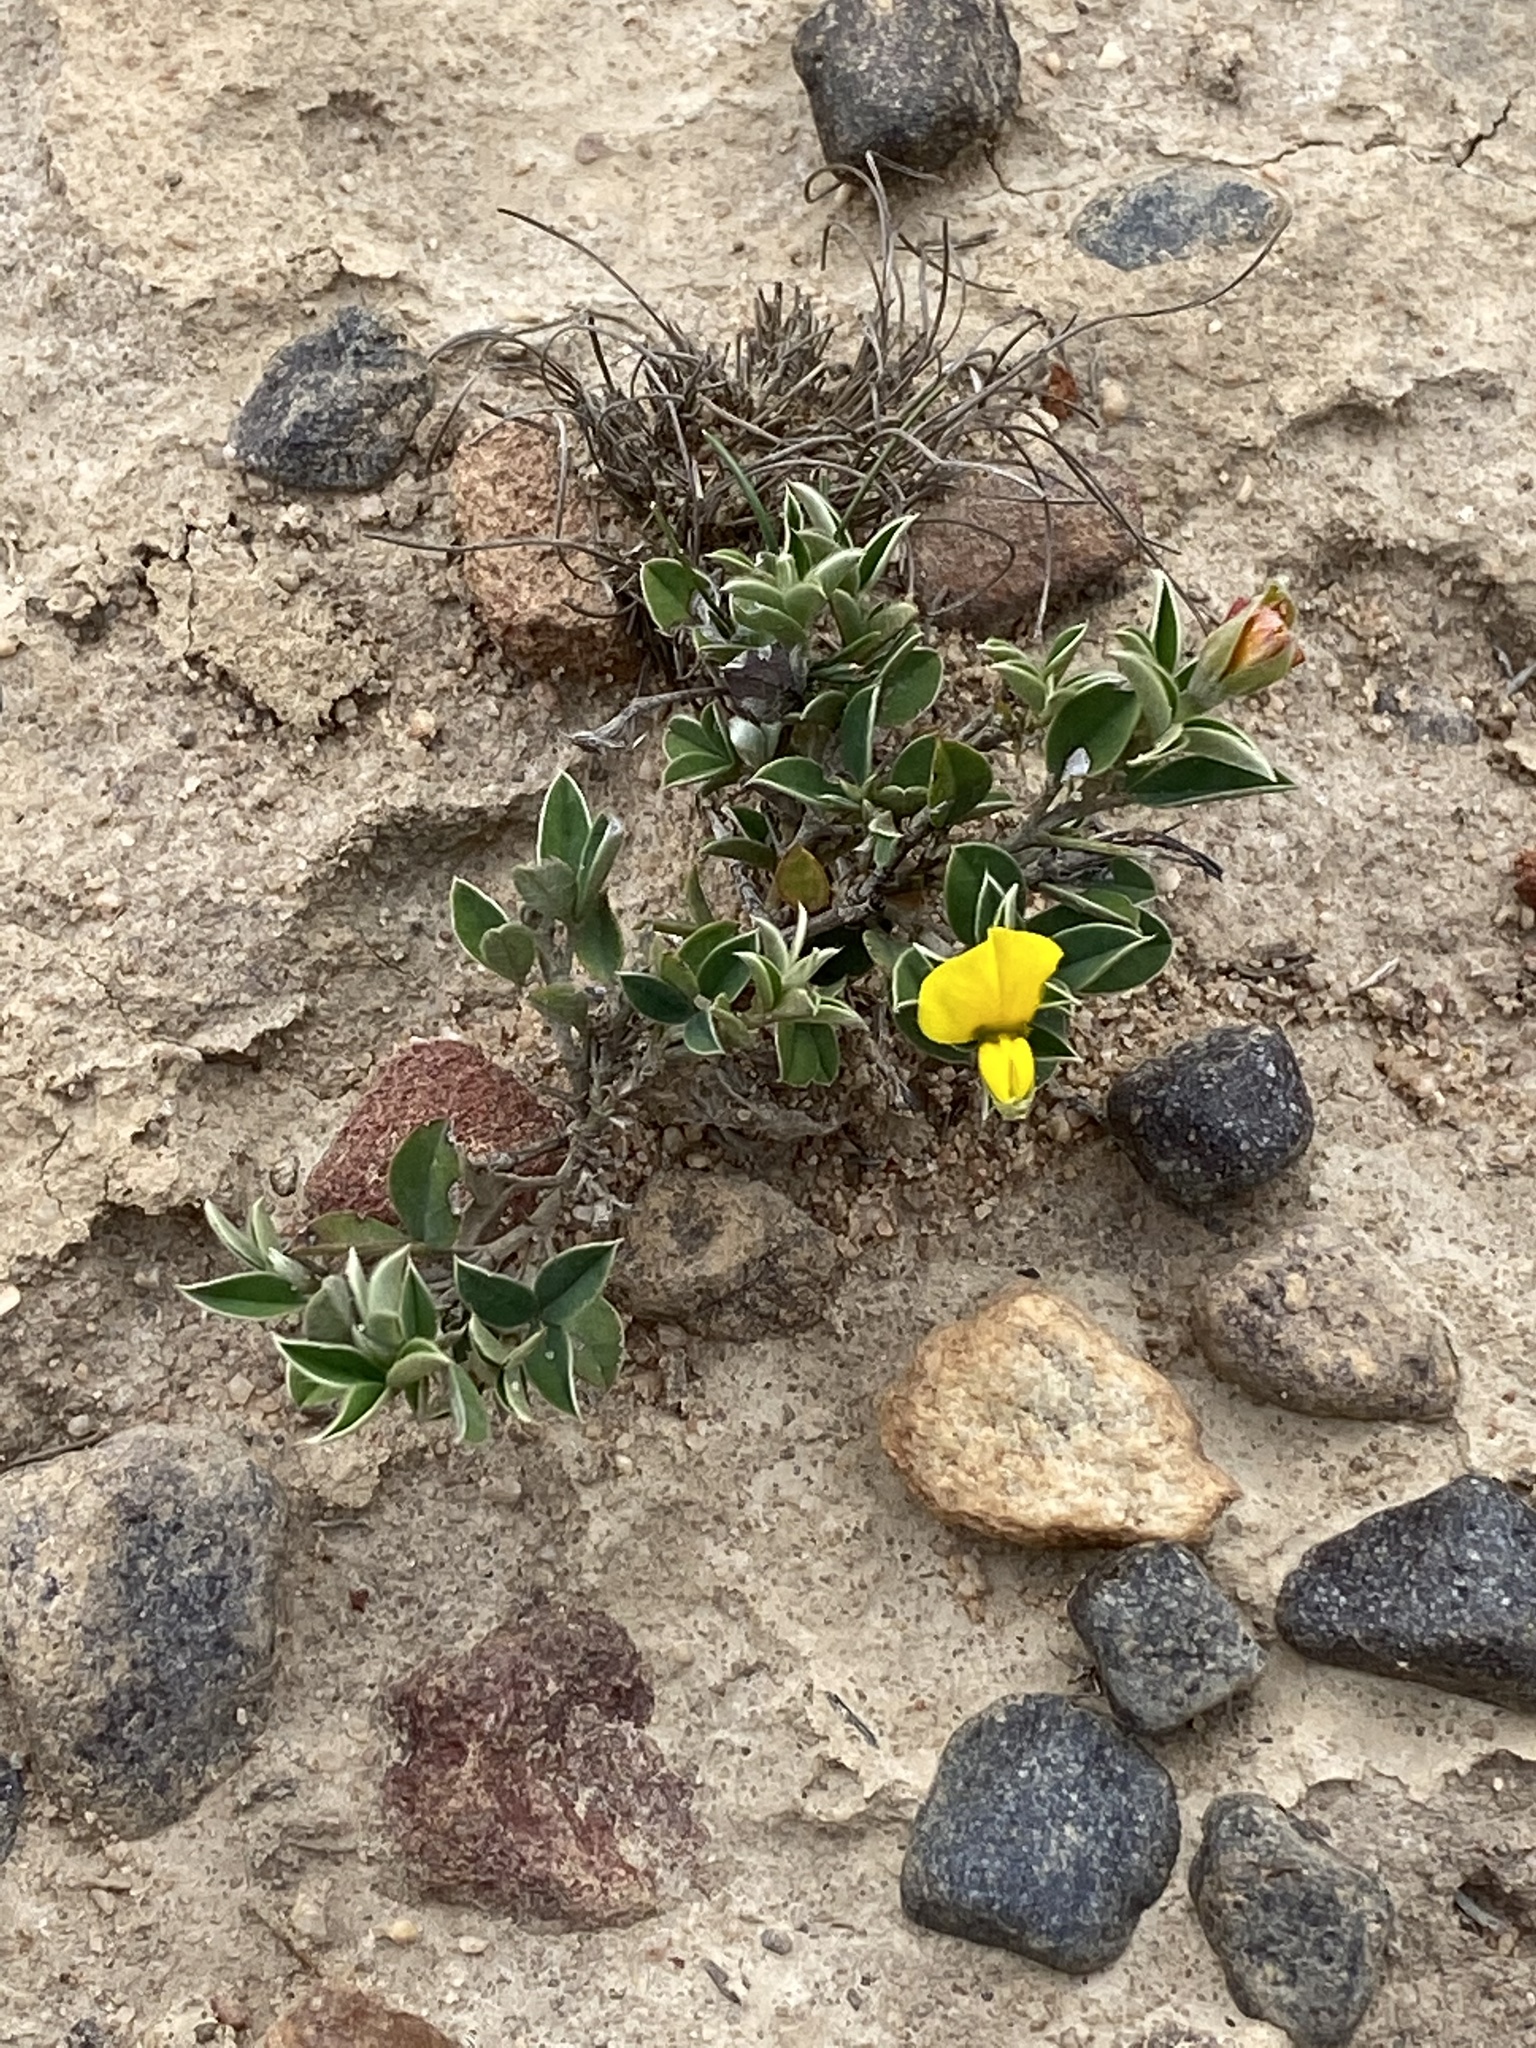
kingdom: Plantae
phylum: Tracheophyta
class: Magnoliopsida
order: Fabales
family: Fabaceae
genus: Argyrolobium
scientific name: Argyrolobium pumilum
